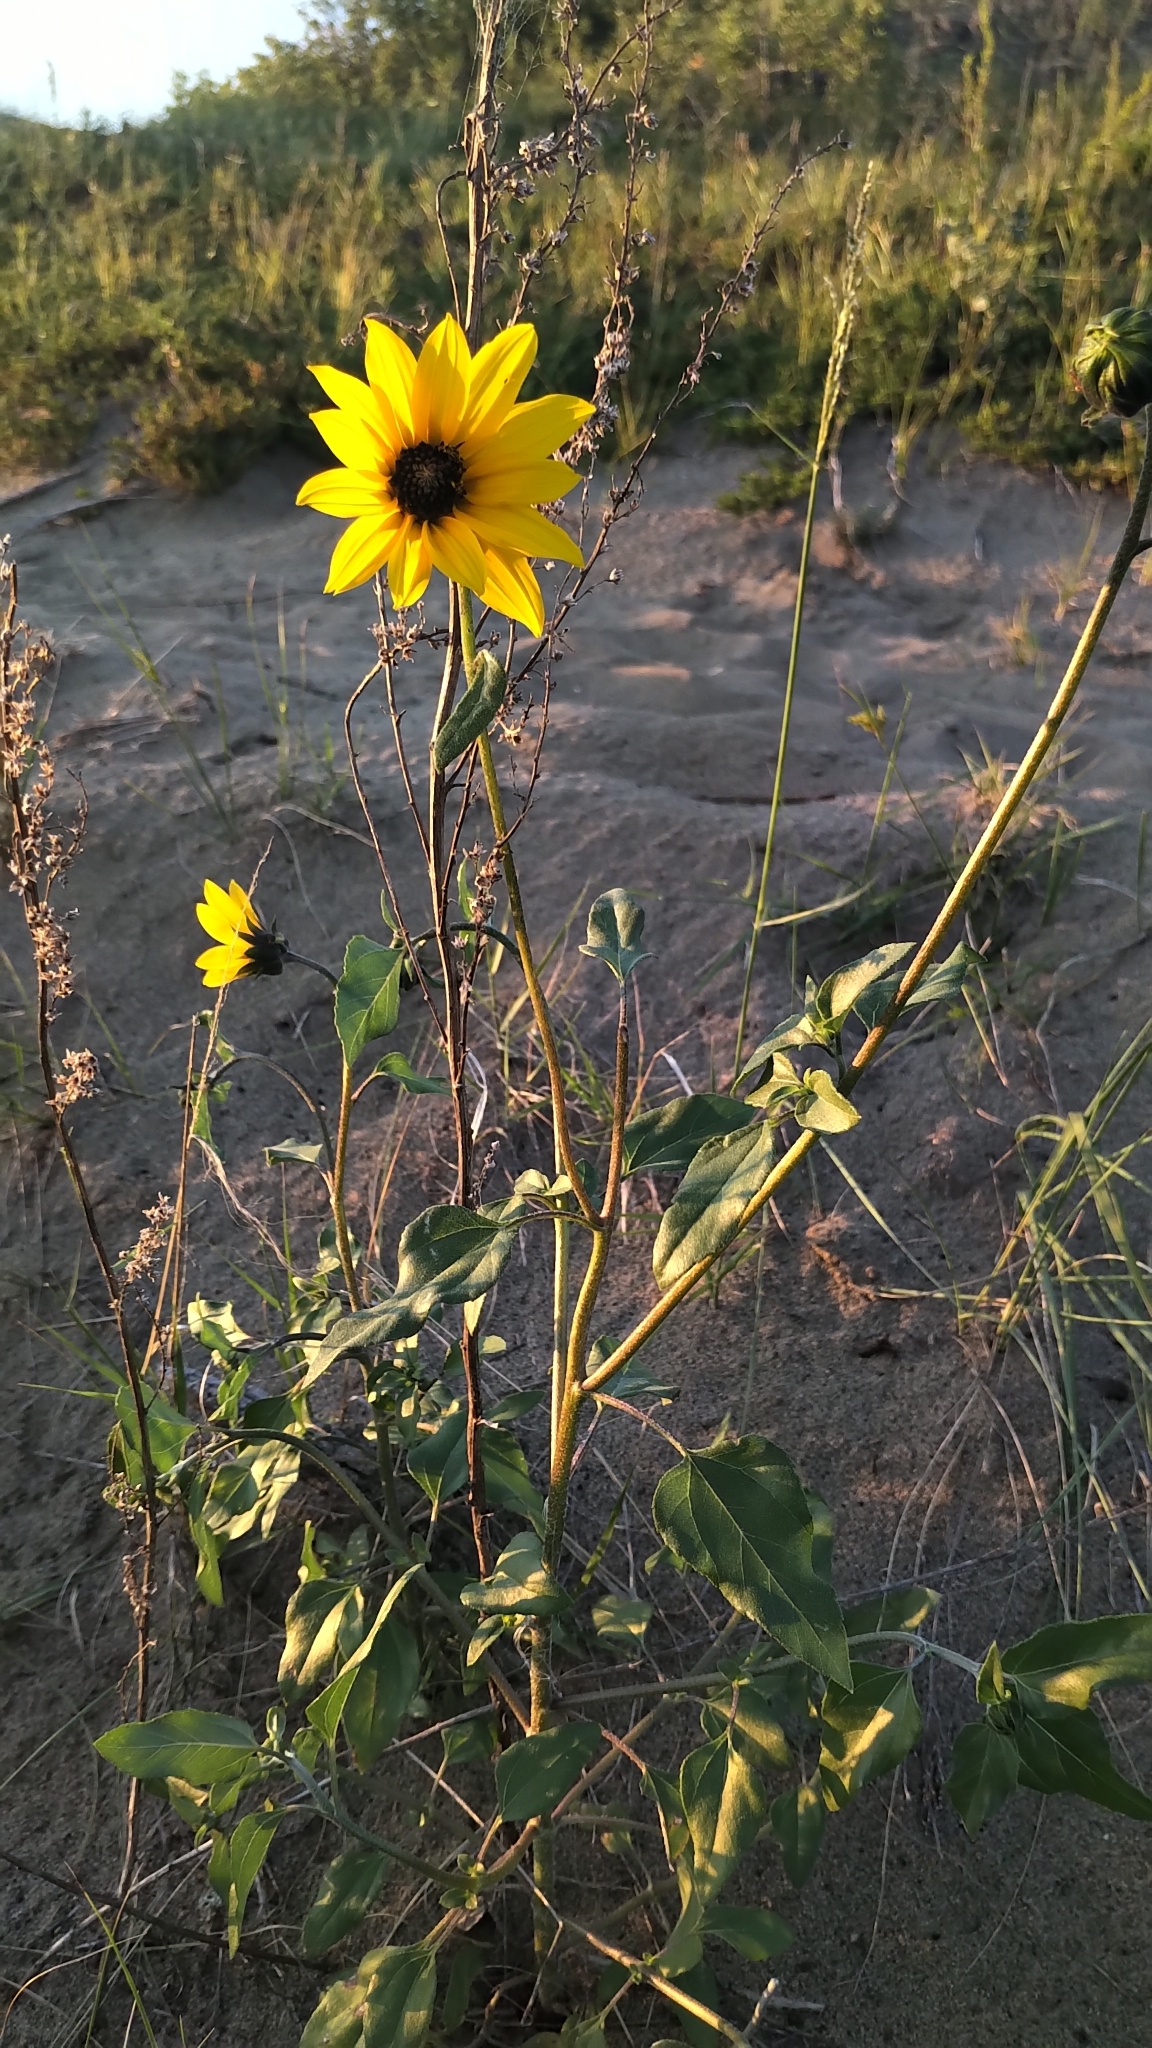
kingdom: Plantae
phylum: Tracheophyta
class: Magnoliopsida
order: Asterales
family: Asteraceae
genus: Helianthus
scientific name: Helianthus petiolaris
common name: Lesser sunflower
